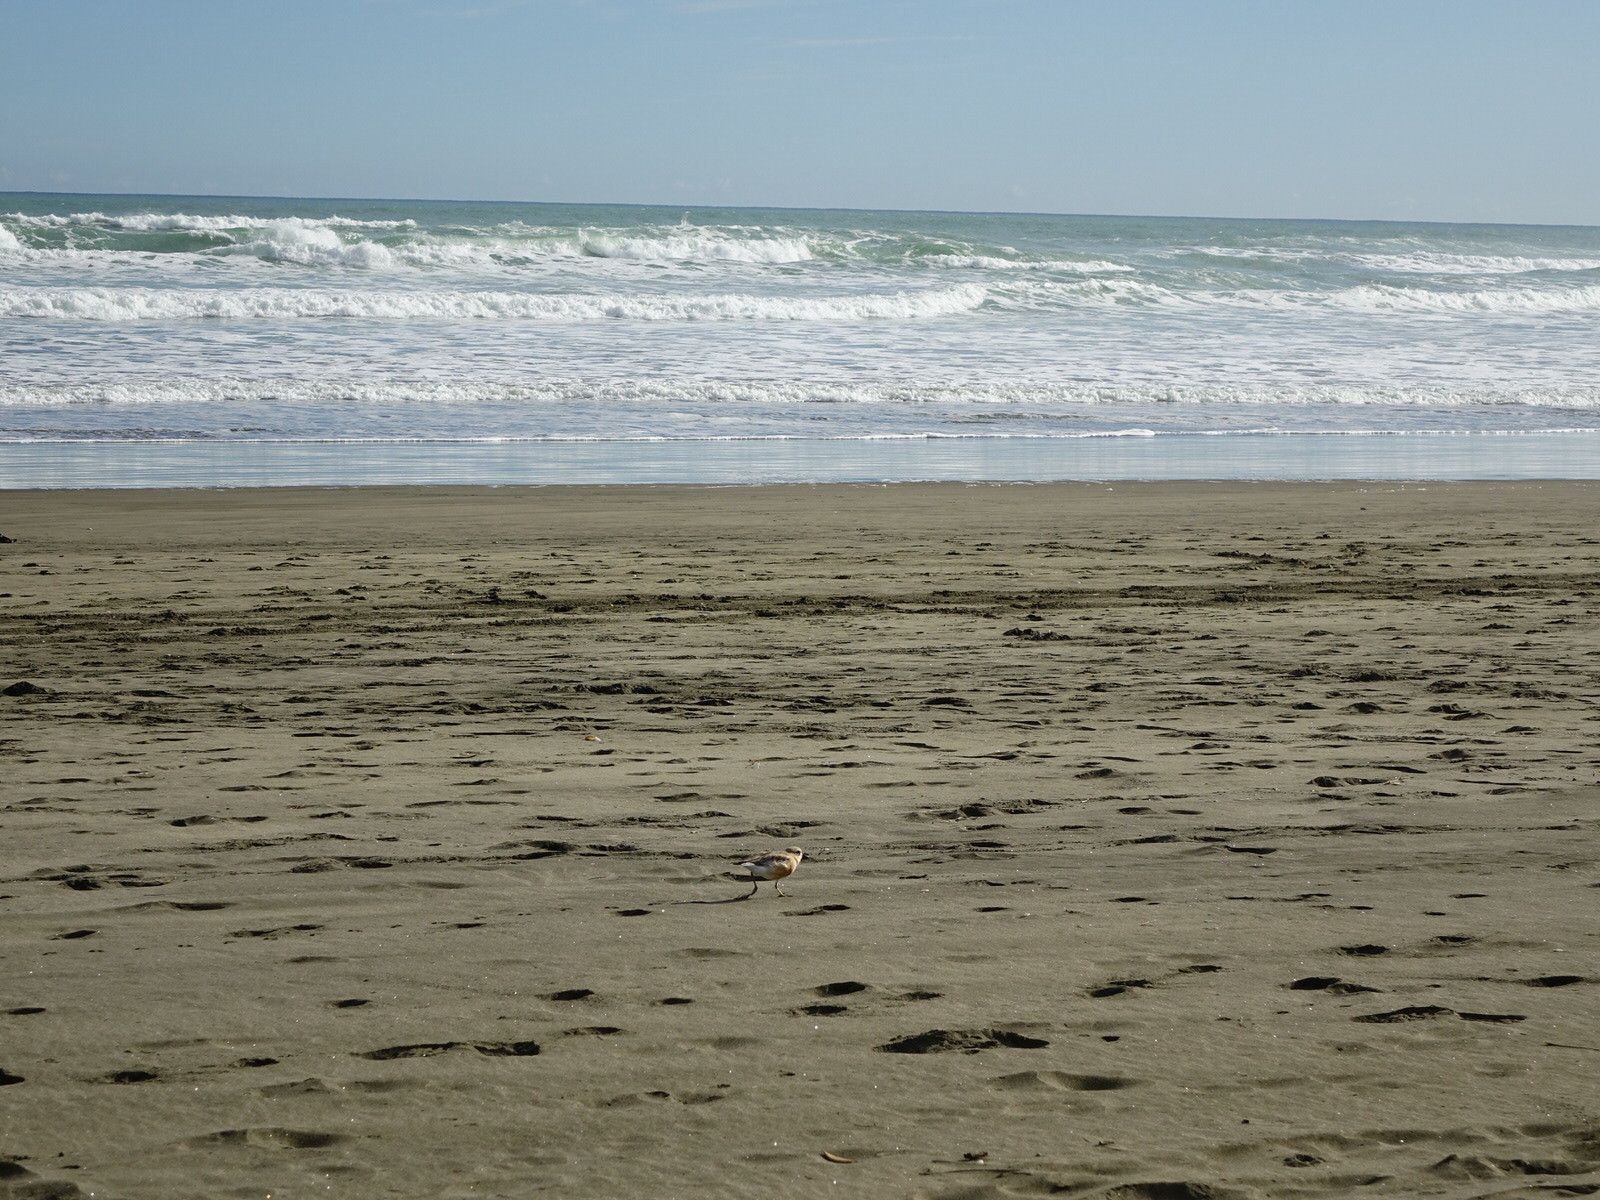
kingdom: Animalia
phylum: Chordata
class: Aves
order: Charadriiformes
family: Charadriidae
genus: Anarhynchus
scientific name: Anarhynchus
